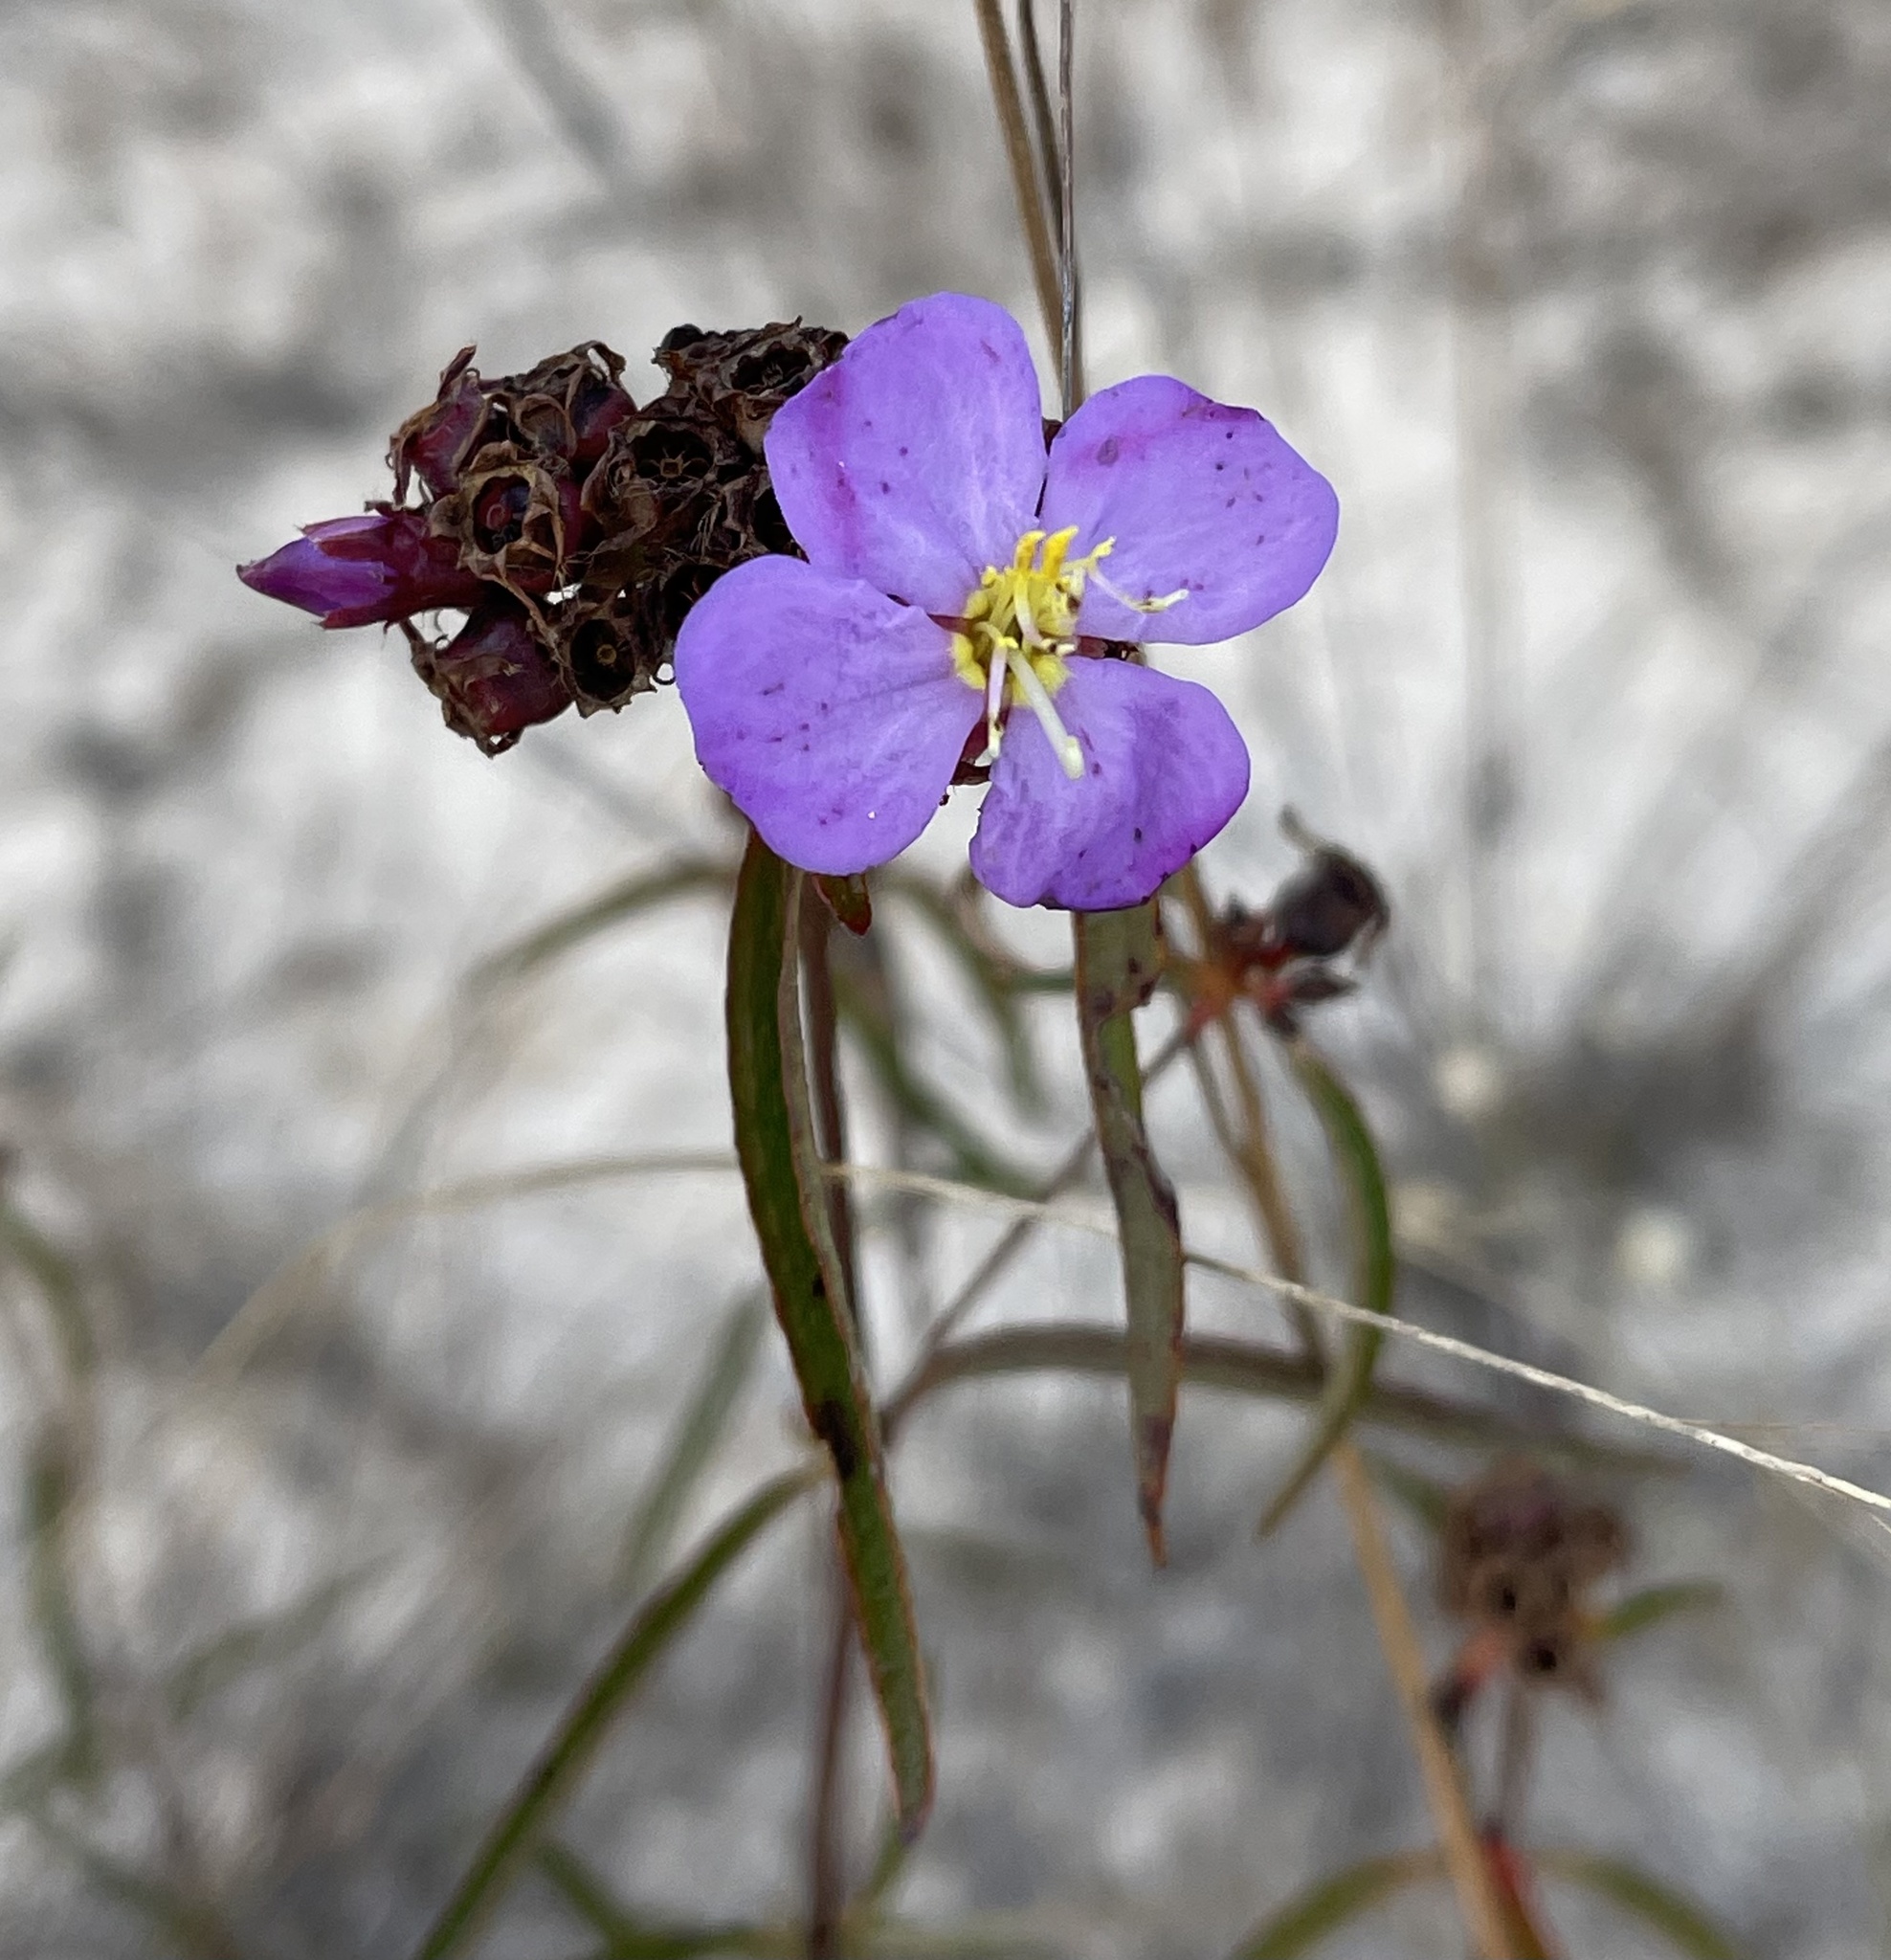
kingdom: Plantae
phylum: Tracheophyta
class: Magnoliopsida
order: Myrtales
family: Melastomataceae
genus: Antherotoma
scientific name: Antherotoma debilis
